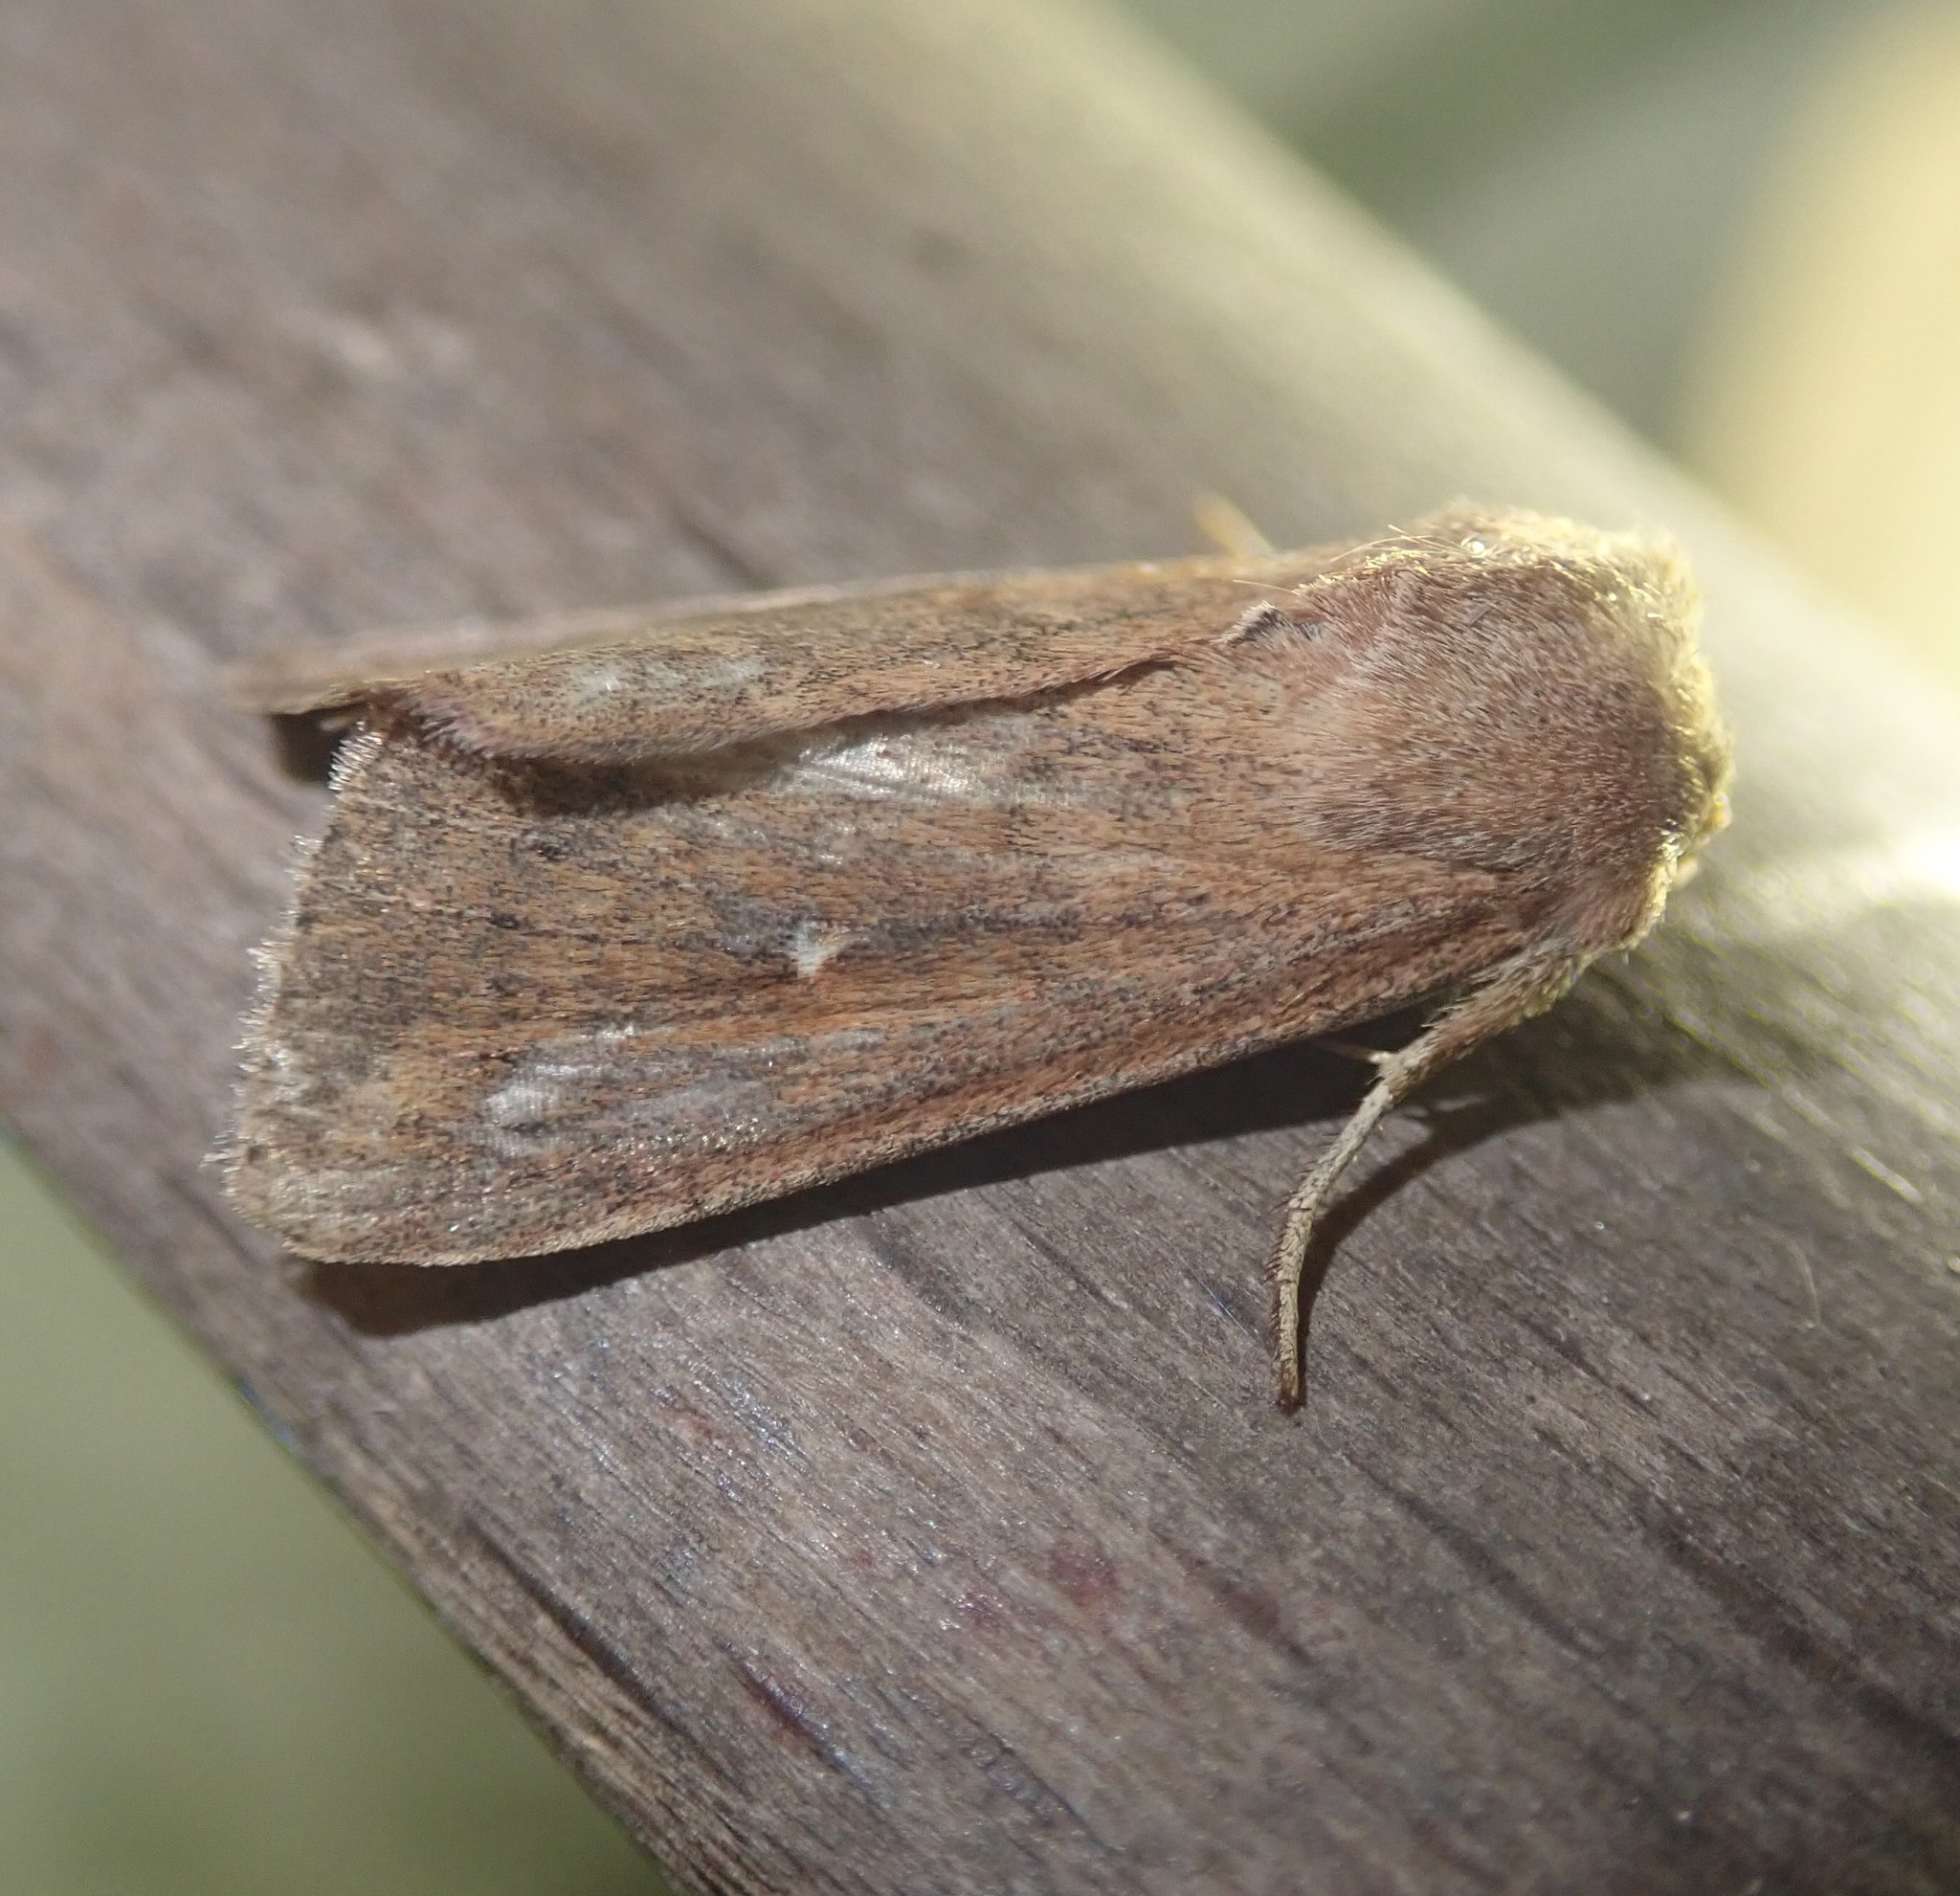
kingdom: Animalia
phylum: Arthropoda
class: Insecta
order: Lepidoptera
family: Noctuidae
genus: Mythimna
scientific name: Mythimna albipuncta
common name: White-point
